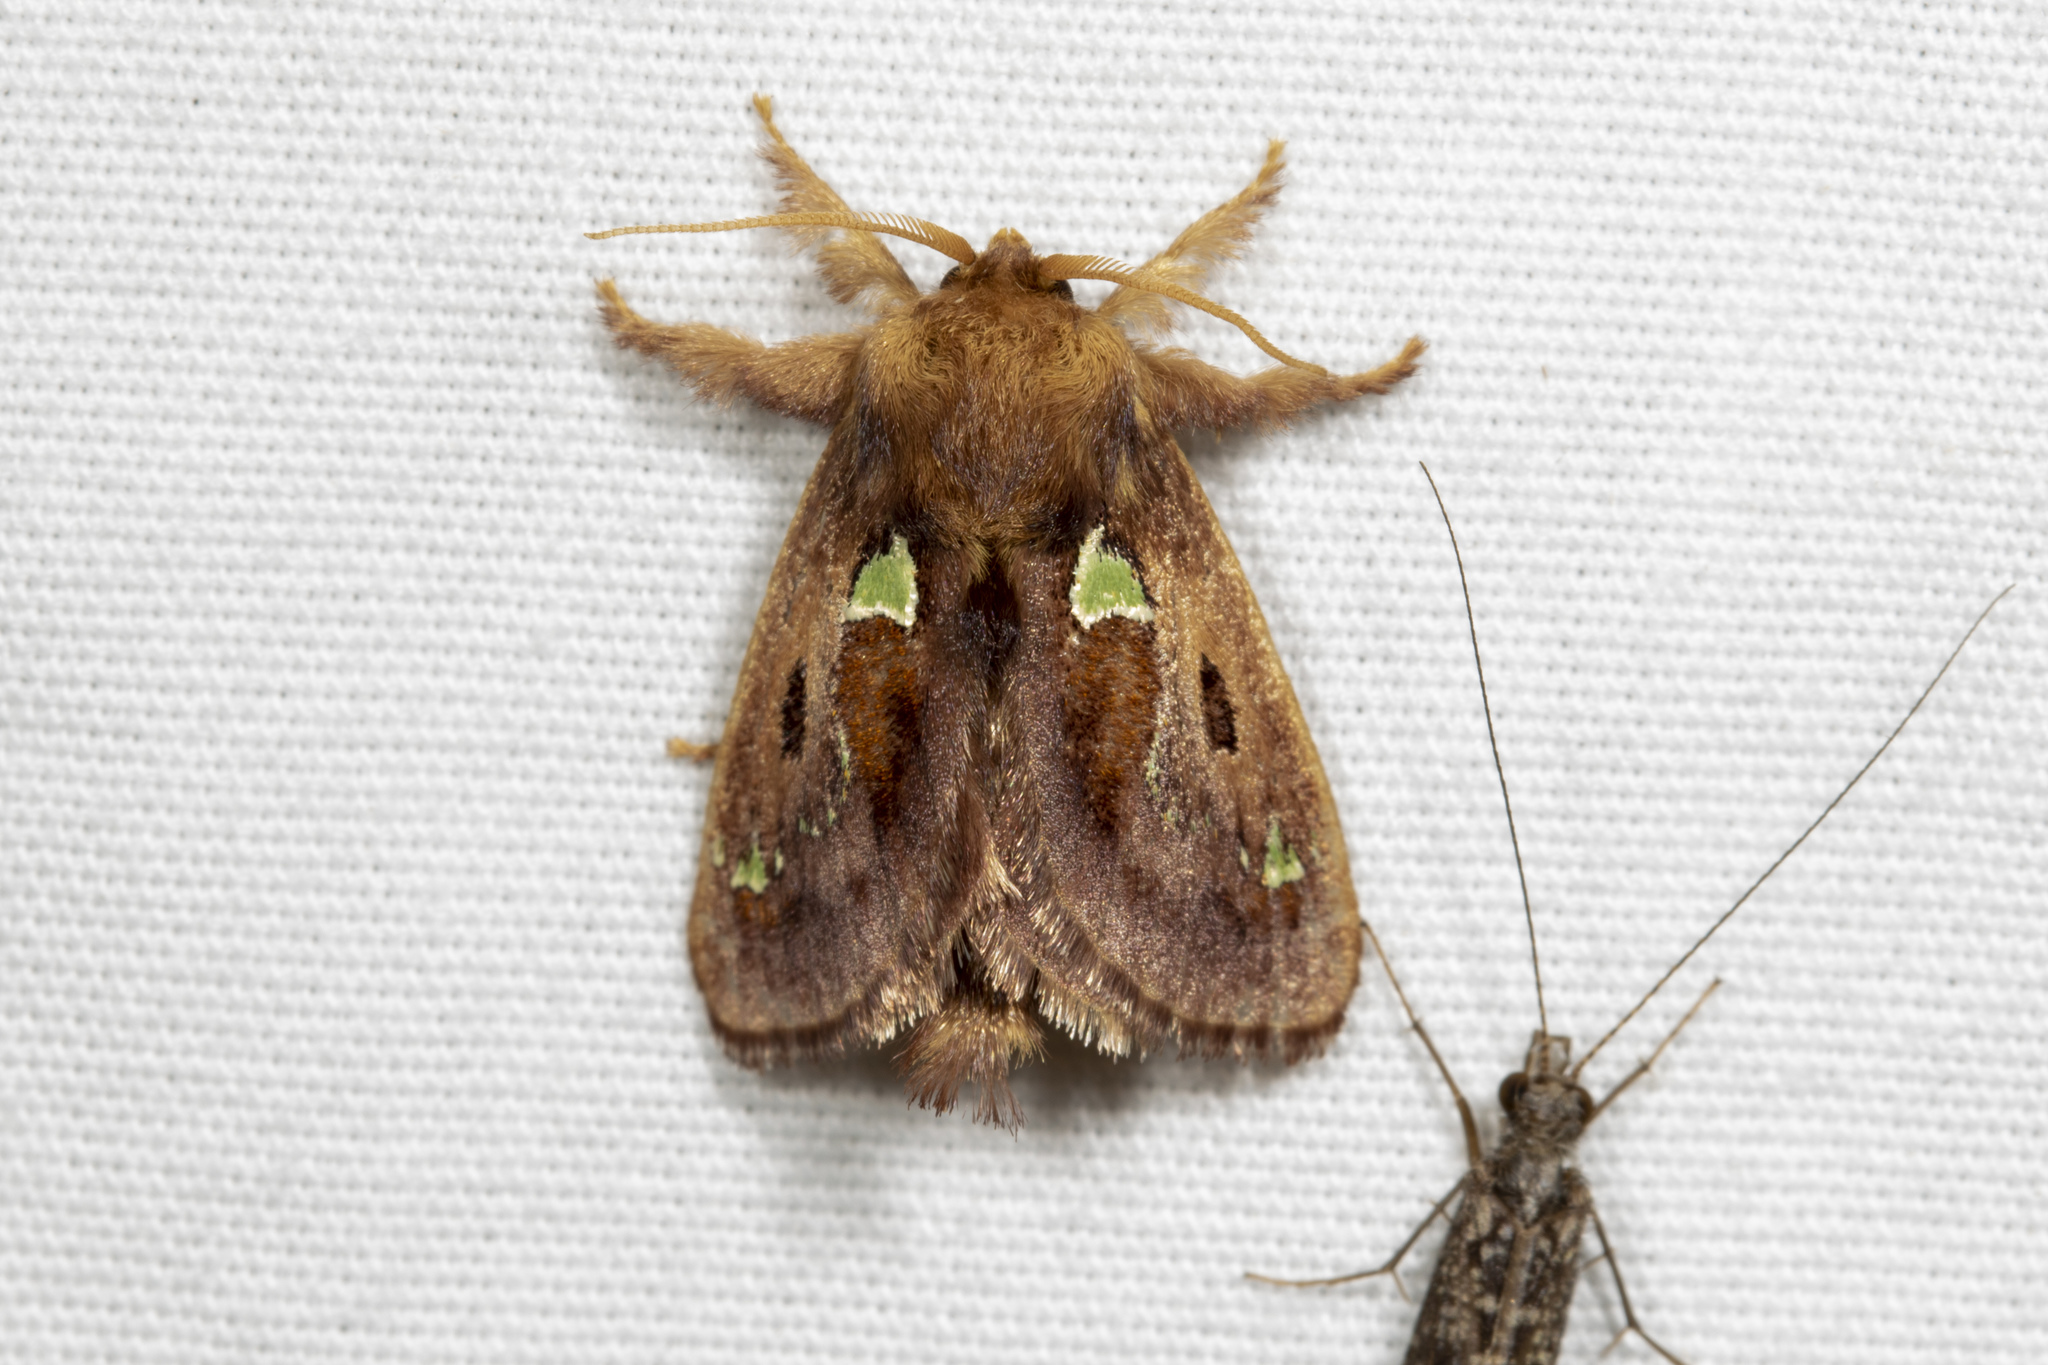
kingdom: Animalia
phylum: Arthropoda
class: Insecta
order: Lepidoptera
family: Limacodidae
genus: Euclea
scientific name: Euclea delphinii
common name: Spiny oak-slug moth
